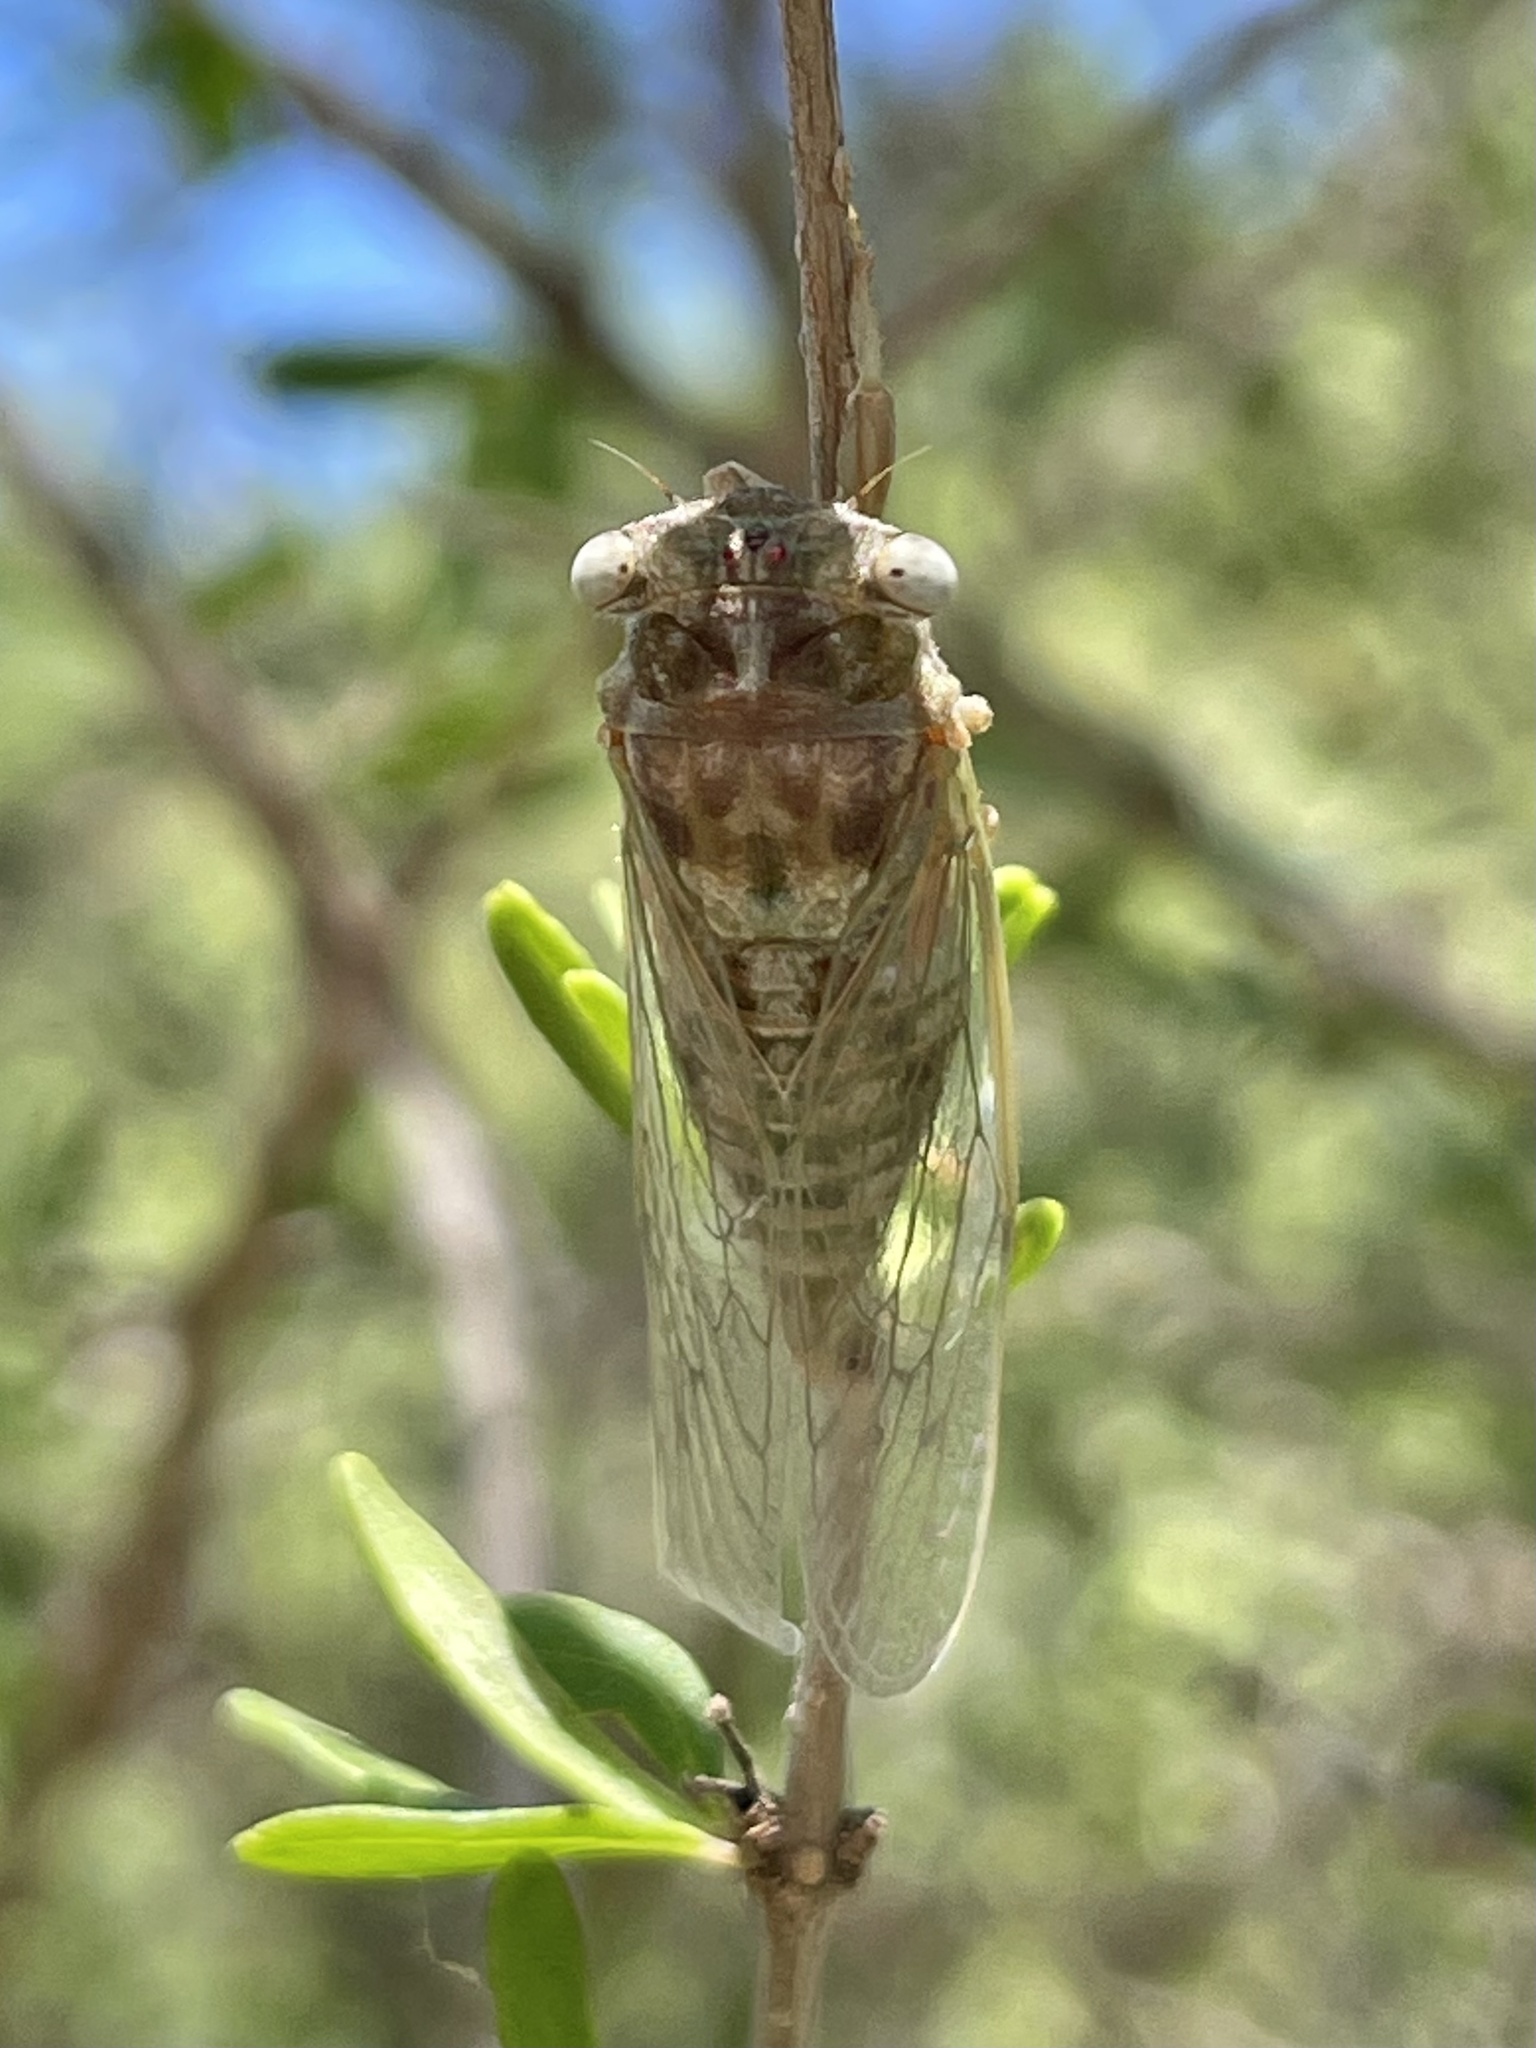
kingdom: Animalia
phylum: Arthropoda
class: Insecta
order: Hemiptera
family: Cicadidae
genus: Pacarina
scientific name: Pacarina puella
